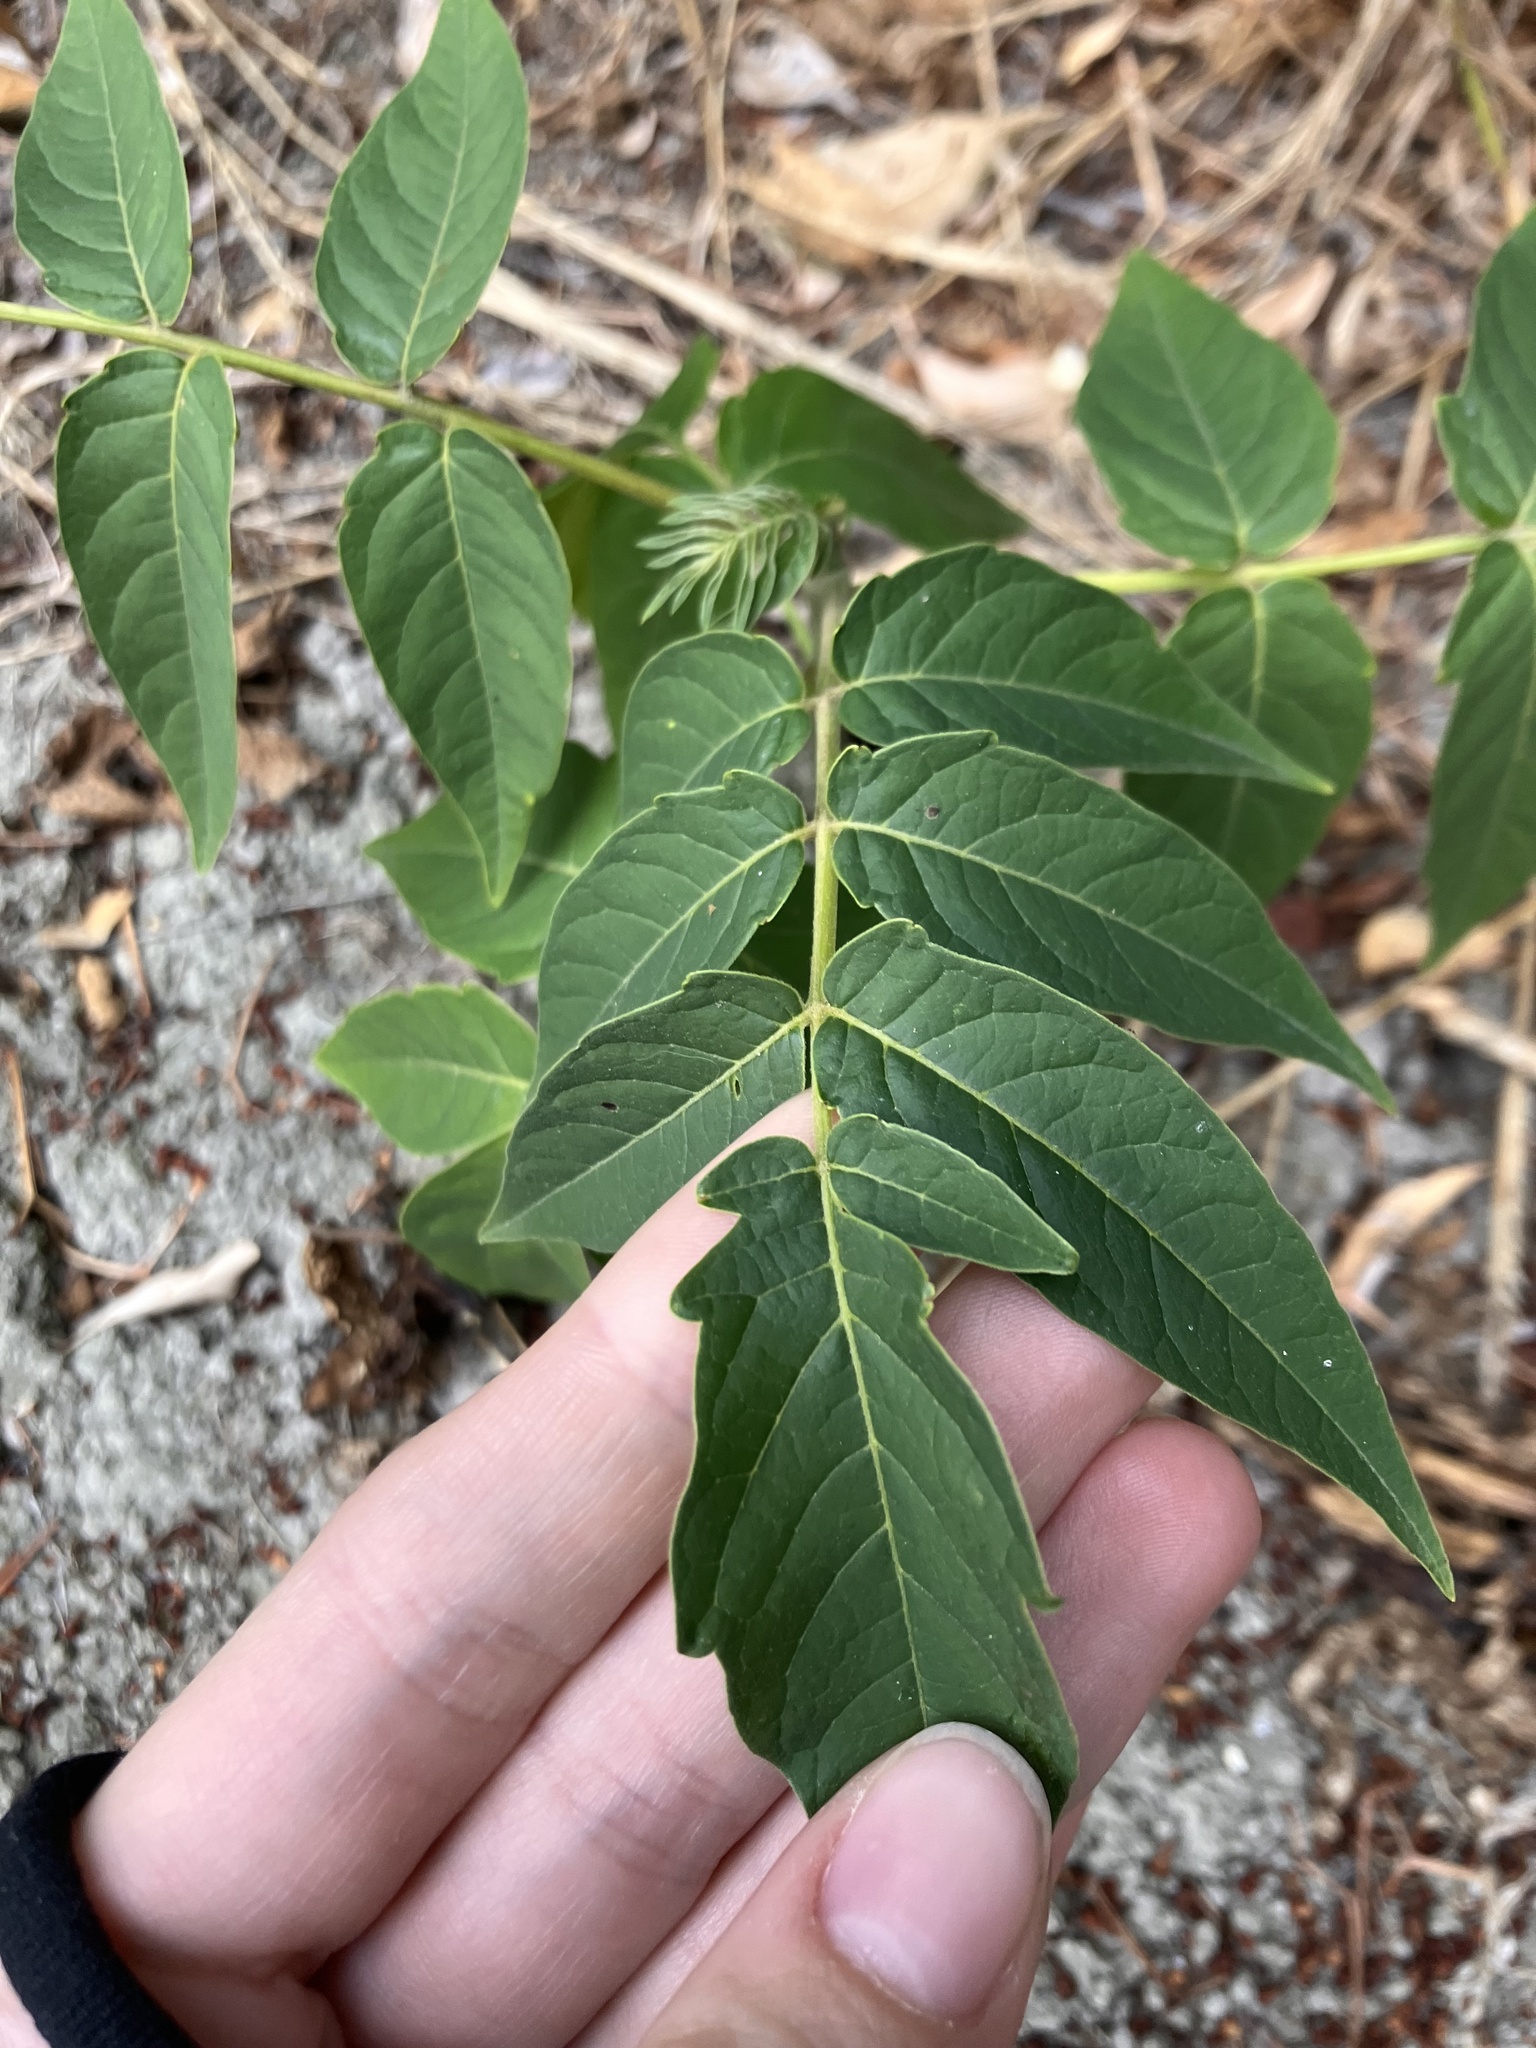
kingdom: Plantae
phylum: Tracheophyta
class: Magnoliopsida
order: Sapindales
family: Simaroubaceae
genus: Ailanthus
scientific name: Ailanthus altissima
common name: Tree-of-heaven
